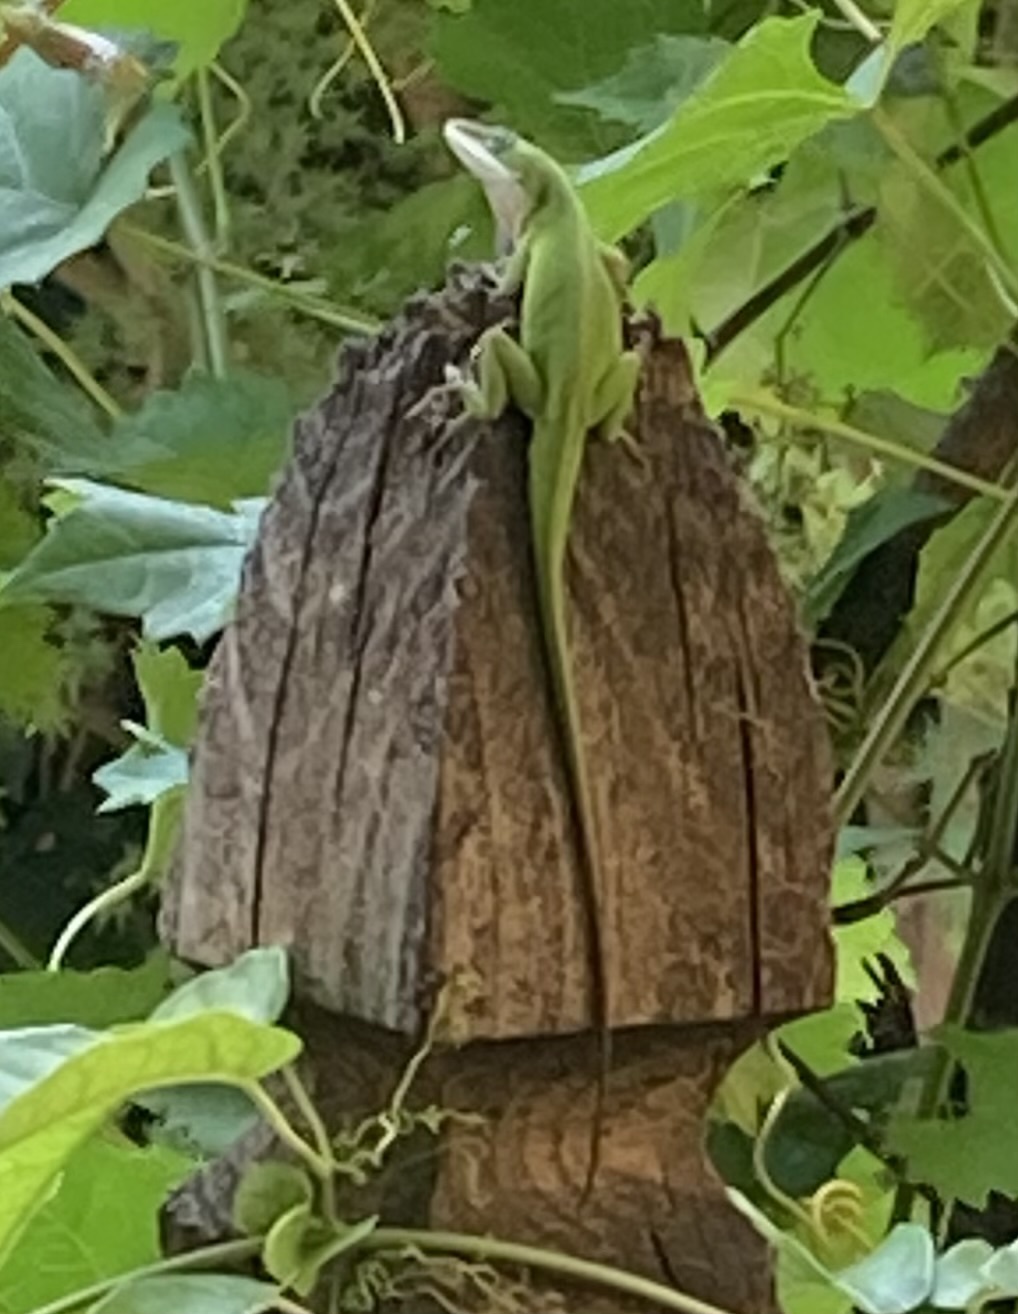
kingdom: Animalia
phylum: Chordata
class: Squamata
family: Dactyloidae
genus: Anolis
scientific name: Anolis carolinensis
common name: Green anole
